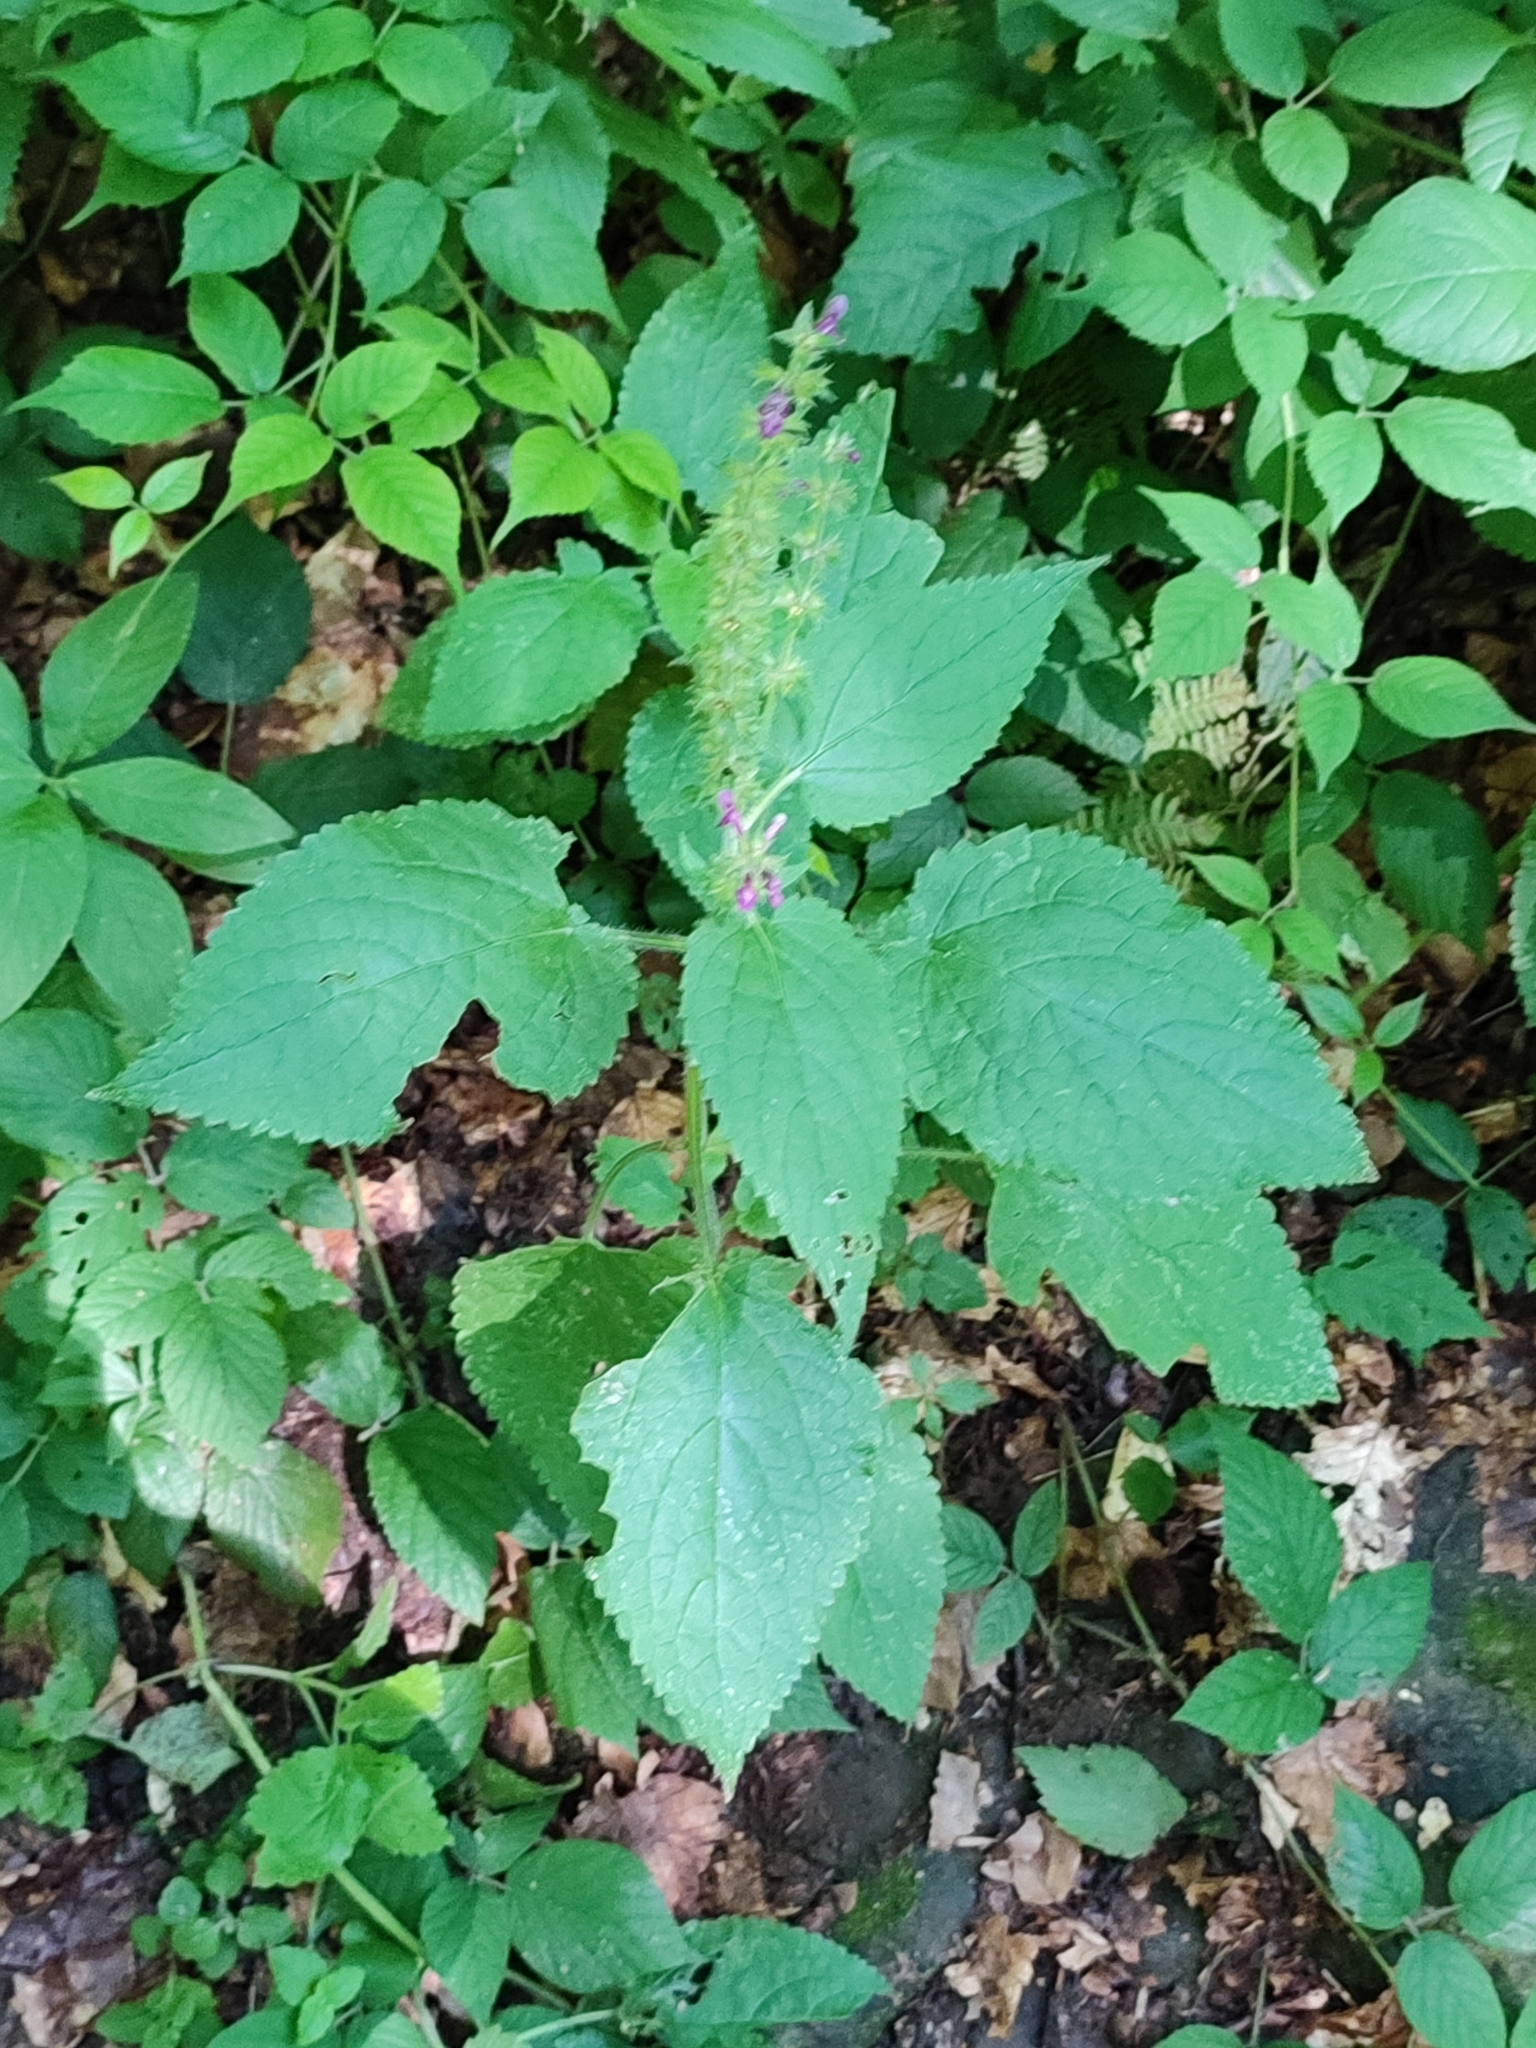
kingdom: Plantae
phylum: Tracheophyta
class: Magnoliopsida
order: Lamiales
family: Lamiaceae
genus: Stachys
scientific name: Stachys sylvatica
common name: Hedge woundwort
